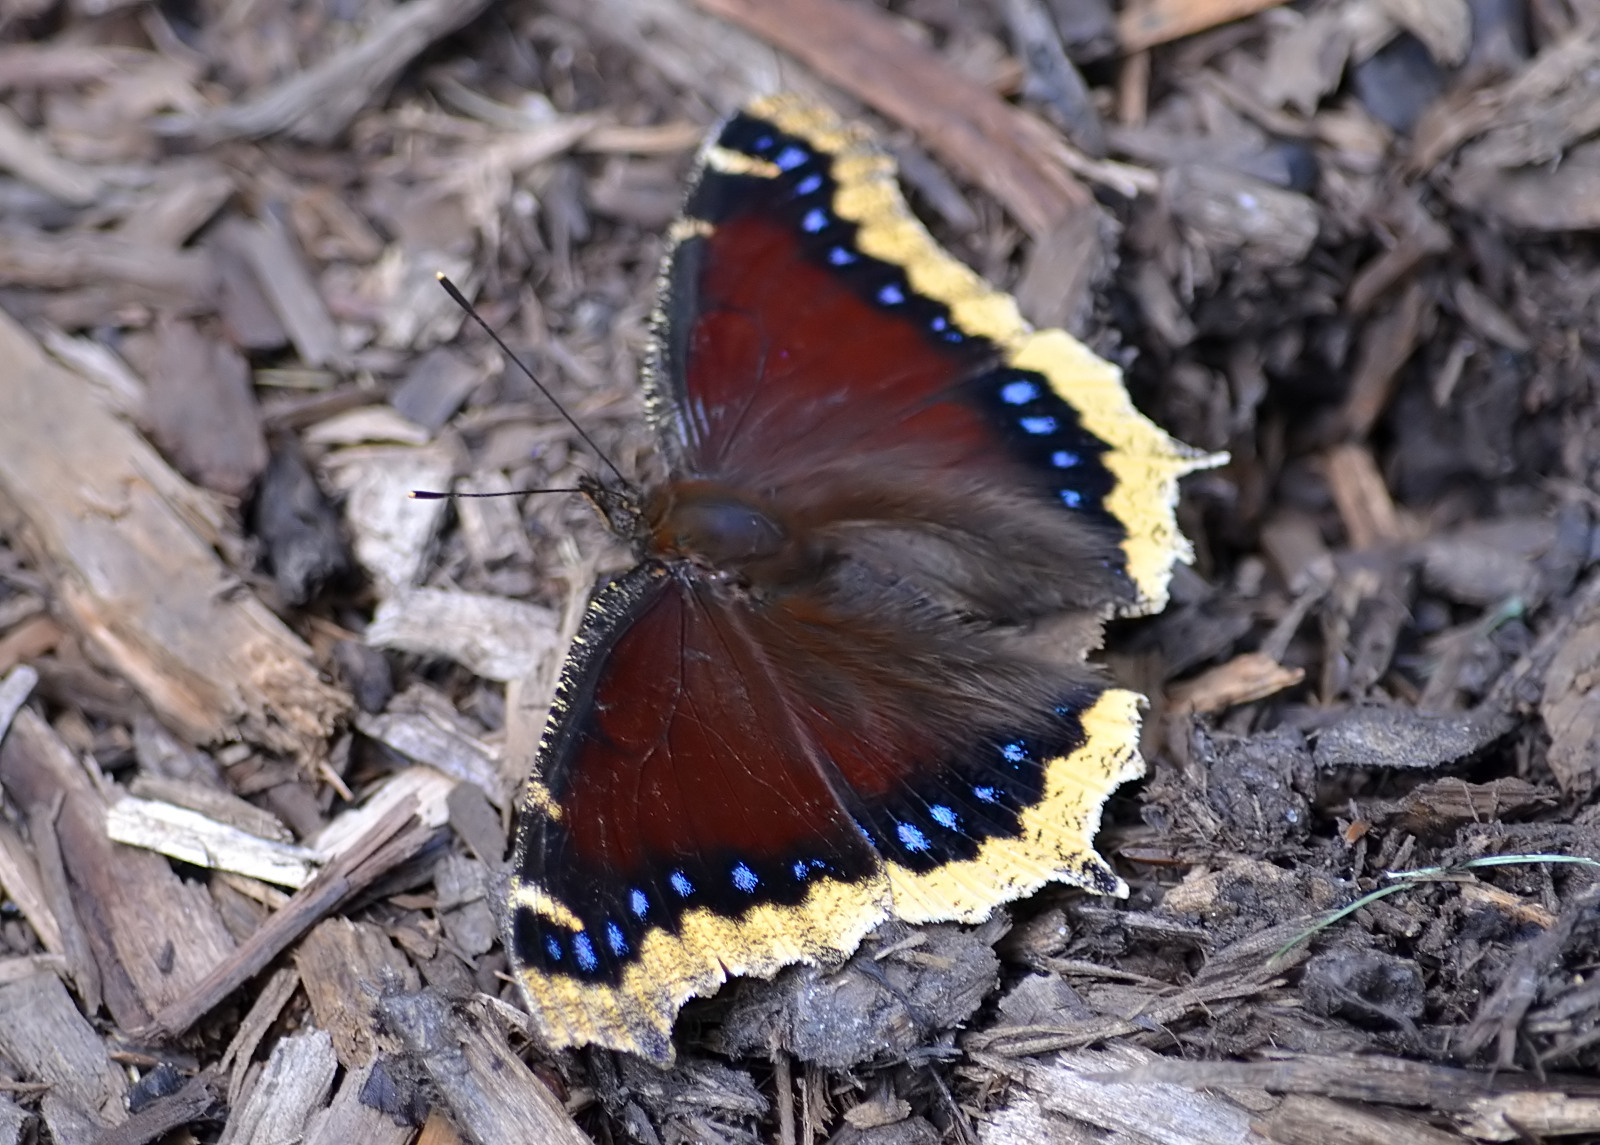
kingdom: Animalia
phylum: Arthropoda
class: Insecta
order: Lepidoptera
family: Nymphalidae
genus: Nymphalis
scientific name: Nymphalis antiopa
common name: Camberwell beauty
